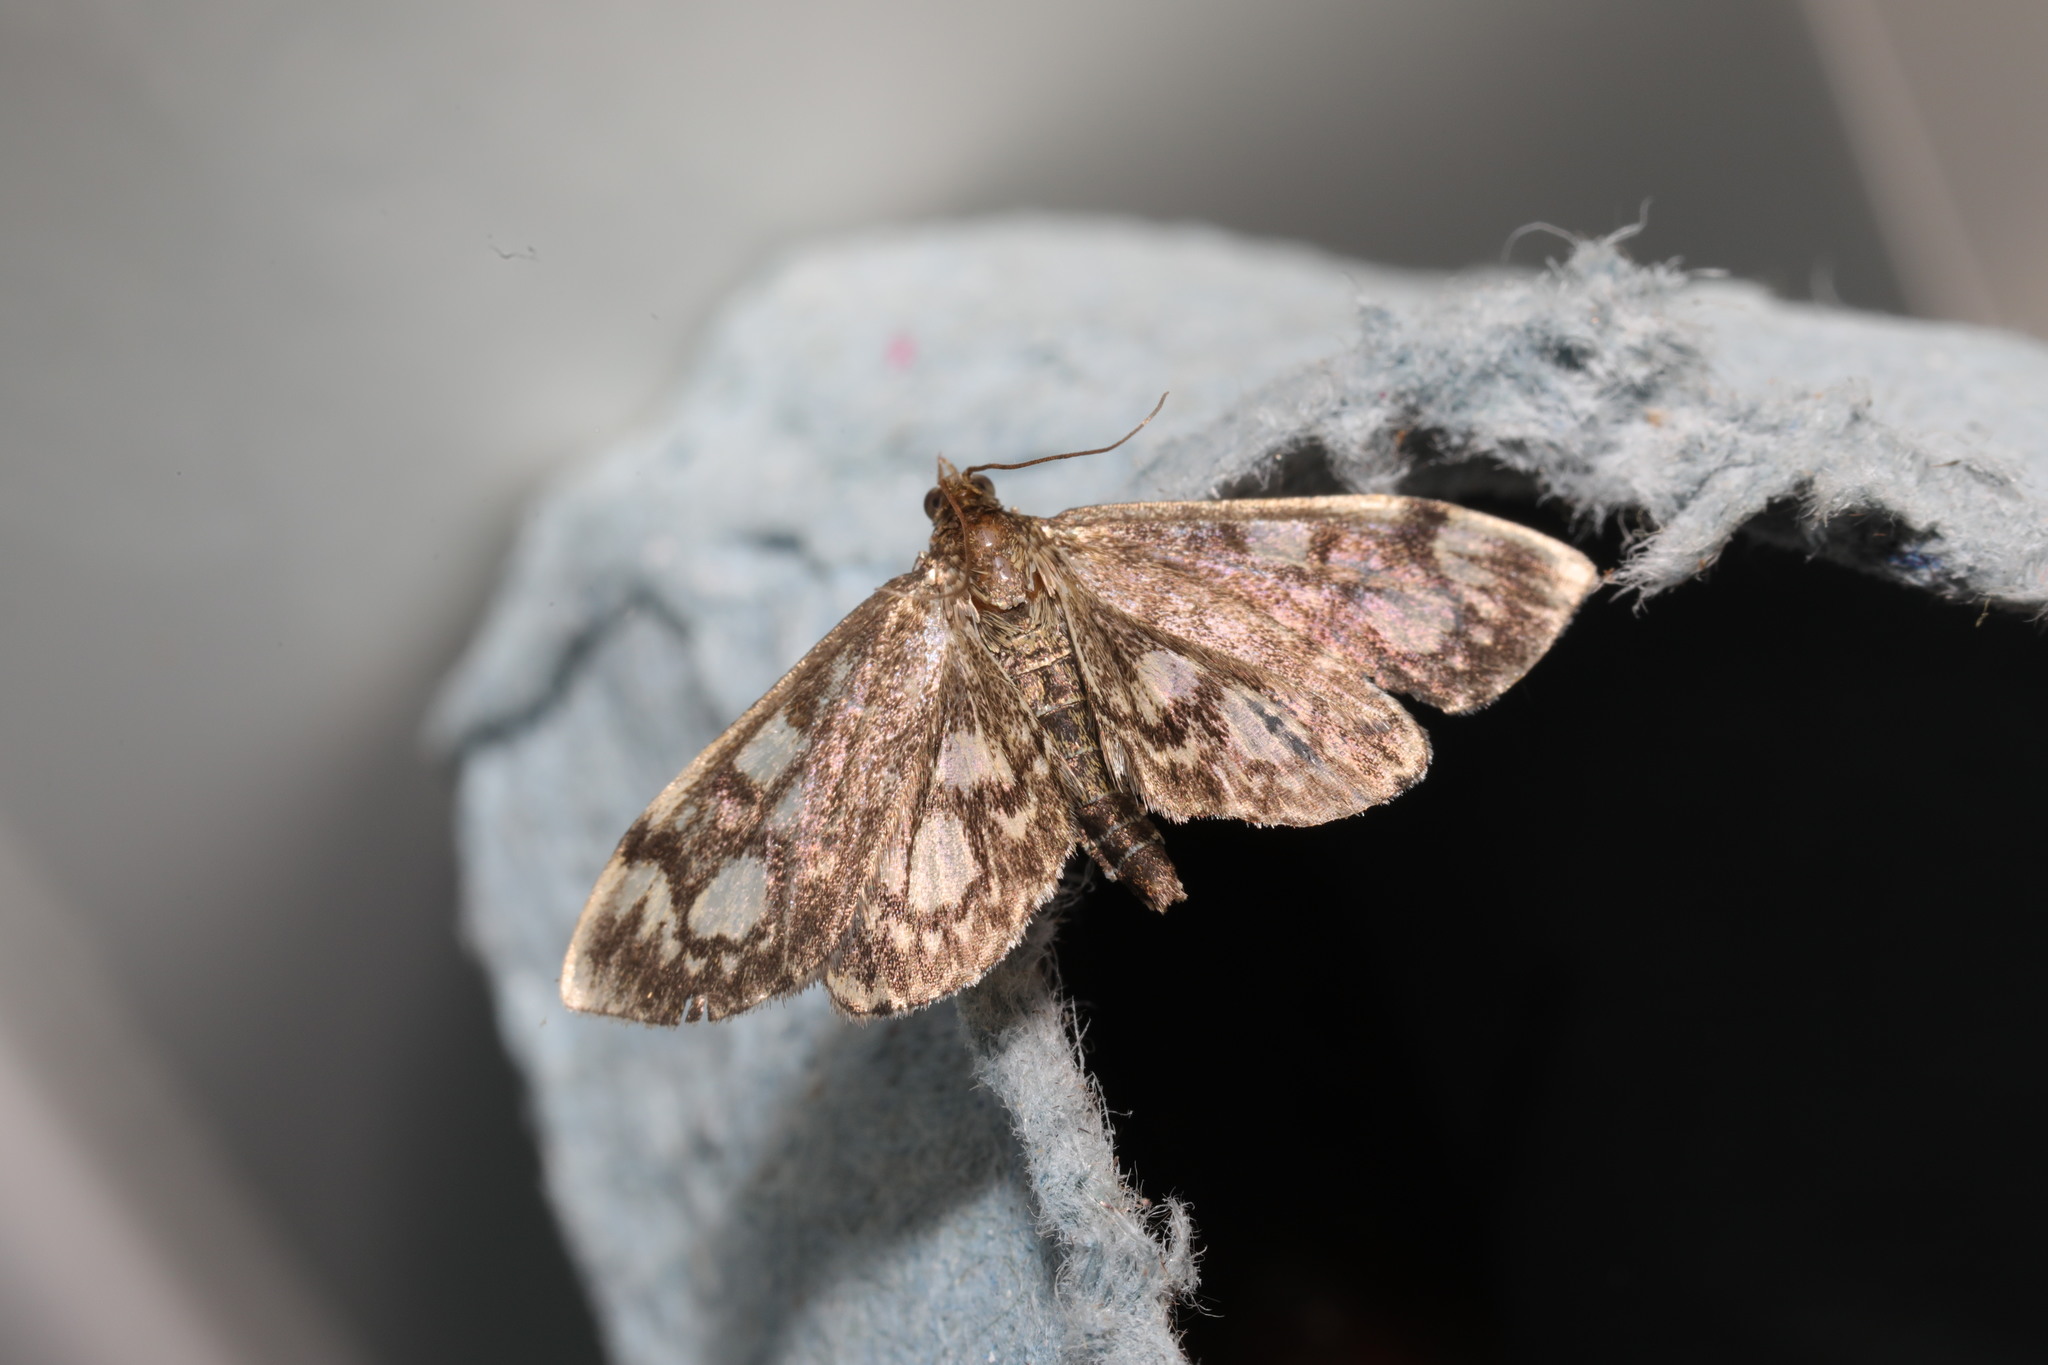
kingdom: Animalia
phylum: Arthropoda
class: Insecta
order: Lepidoptera
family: Crambidae
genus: Anania
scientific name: Anania coronata
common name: Elder pearl
